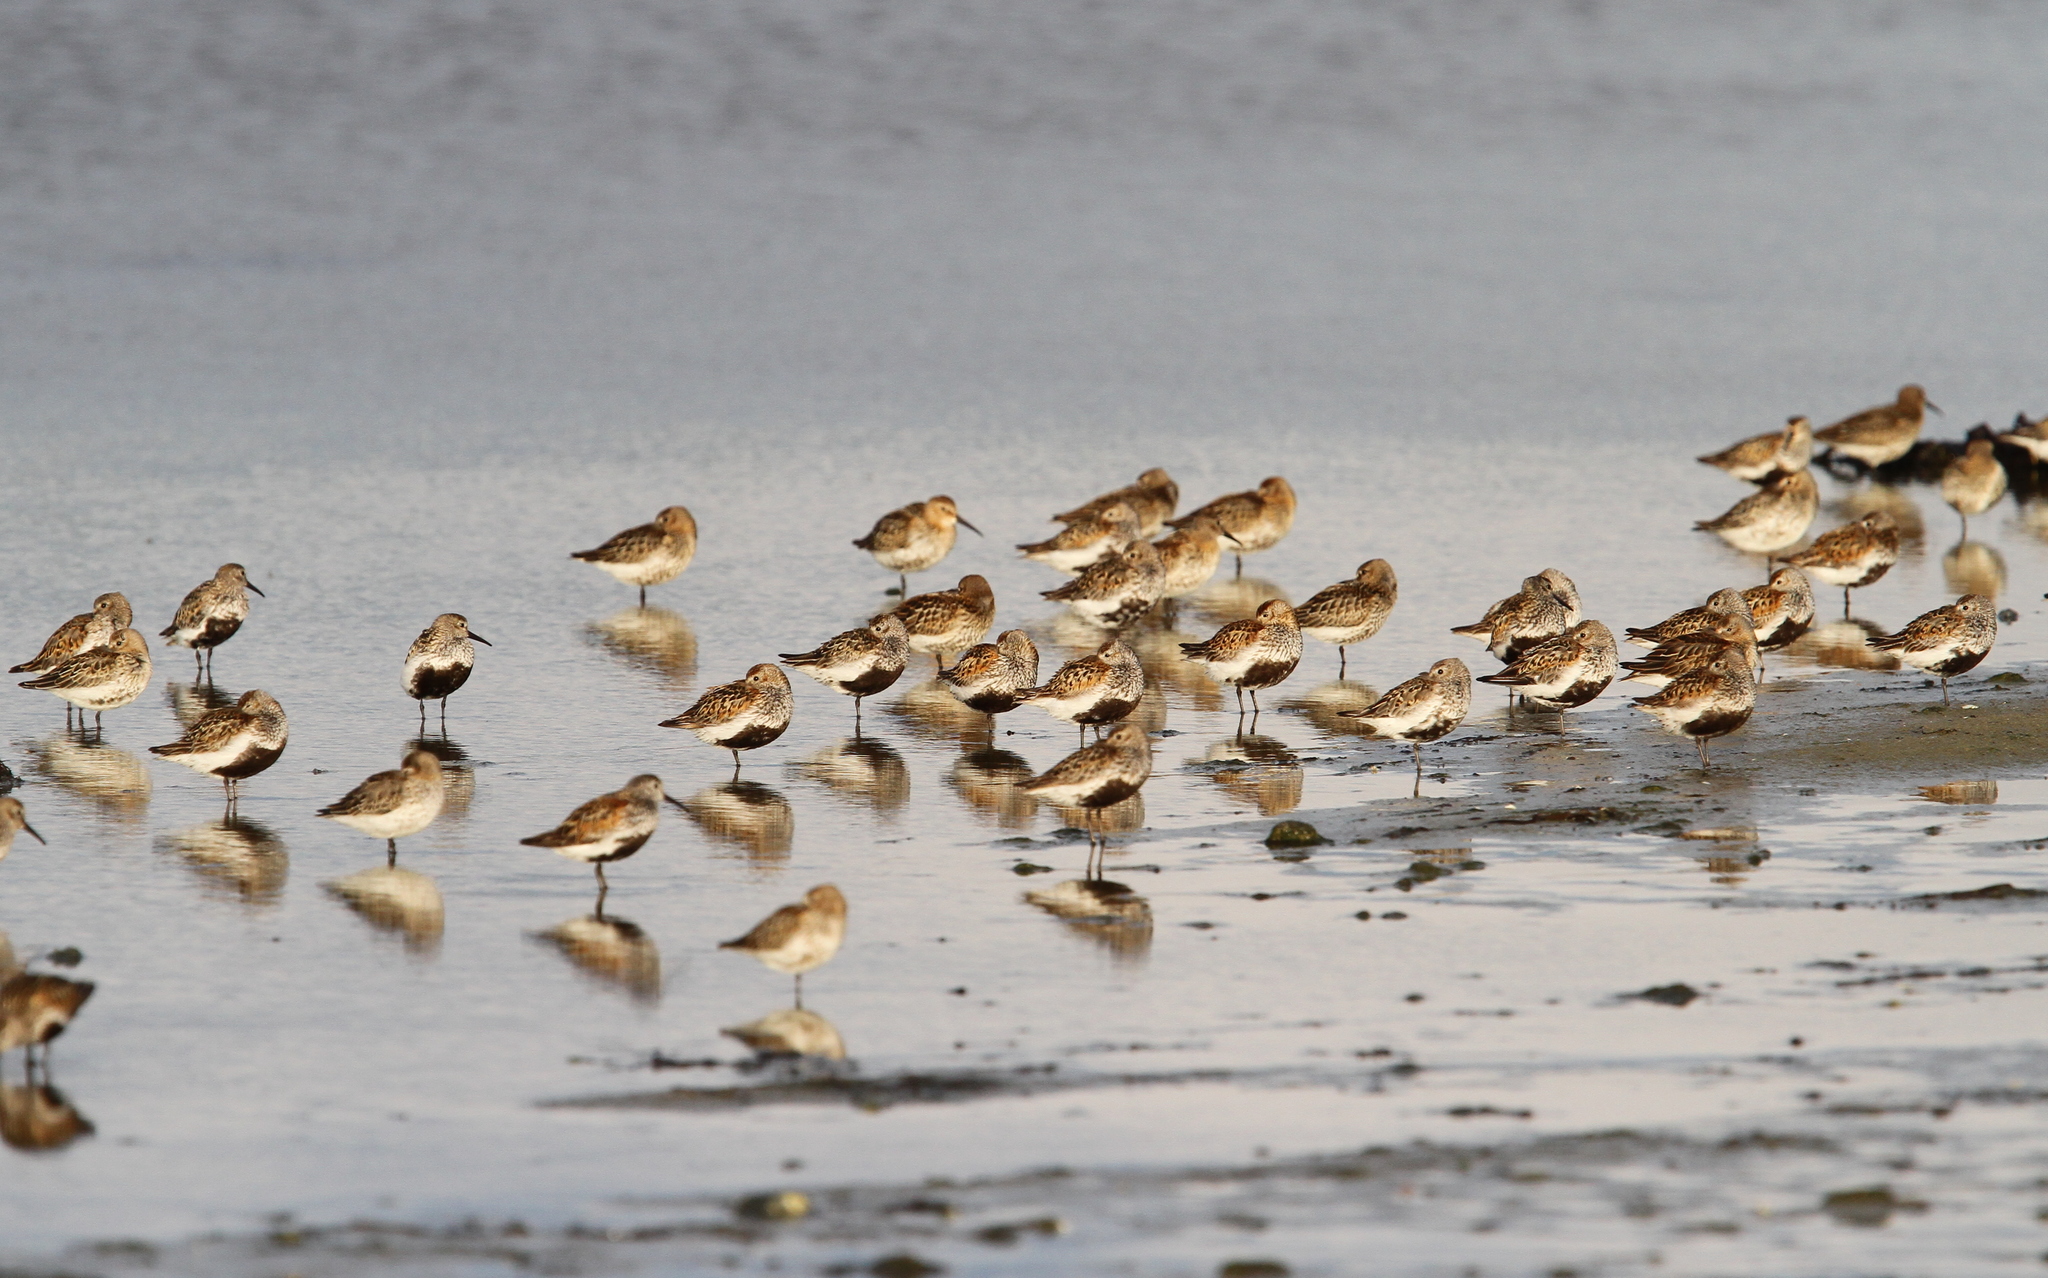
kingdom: Animalia
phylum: Chordata
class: Aves
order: Charadriiformes
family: Scolopacidae
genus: Calidris
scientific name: Calidris alpina
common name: Dunlin
